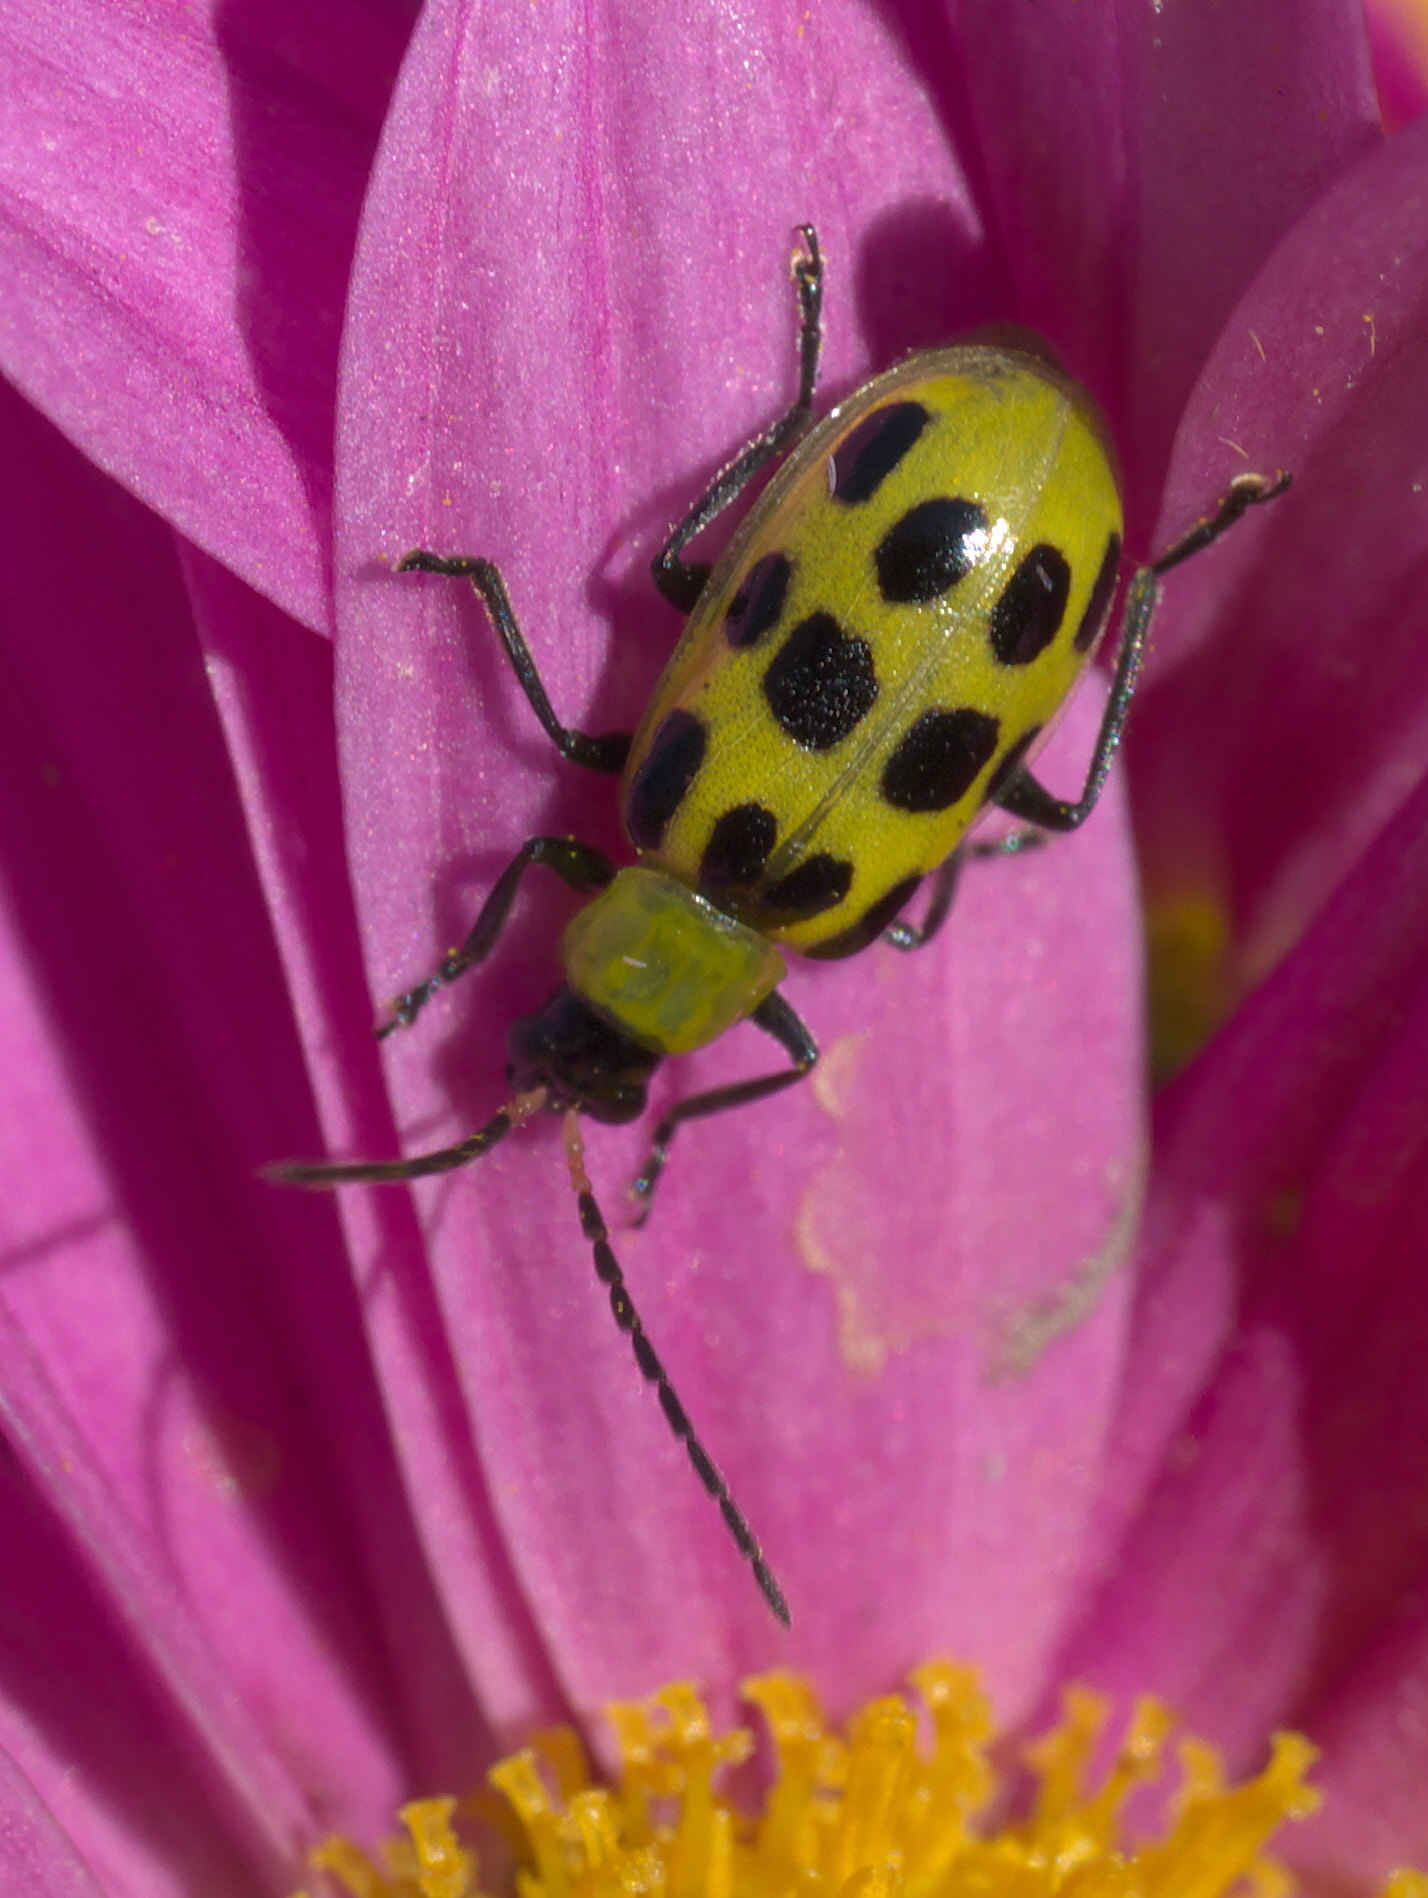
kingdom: Animalia
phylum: Arthropoda
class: Insecta
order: Coleoptera
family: Chrysomelidae
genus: Diabrotica
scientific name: Diabrotica undecimpunctata
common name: Spotted cucumber beetle
